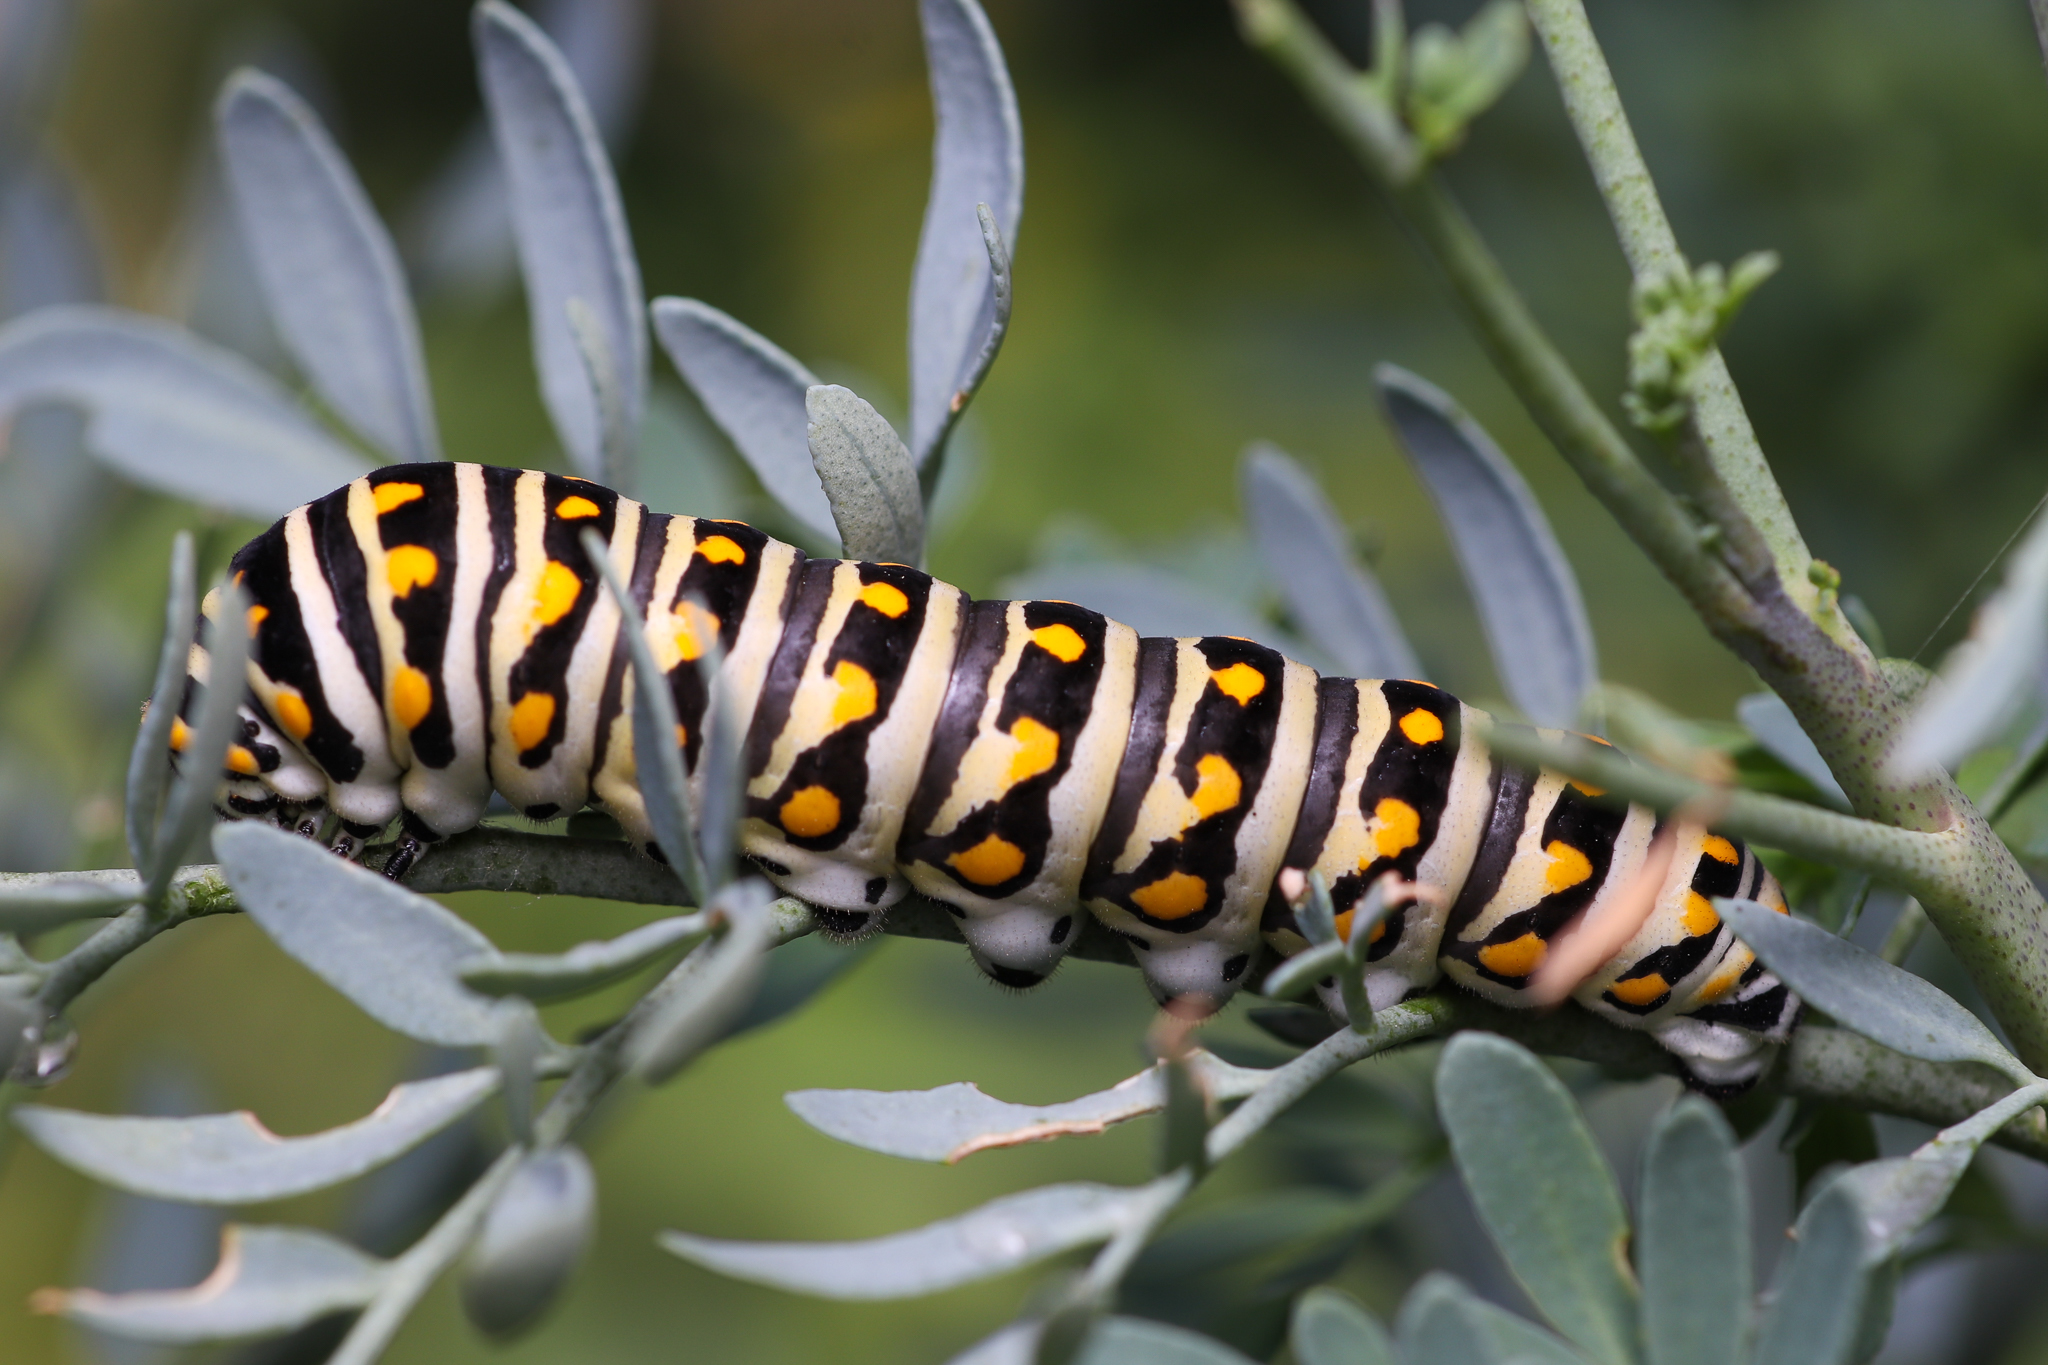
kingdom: Animalia
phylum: Arthropoda
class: Insecta
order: Lepidoptera
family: Papilionidae
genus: Papilio
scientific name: Papilio polyxenes
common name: Black swallowtail
